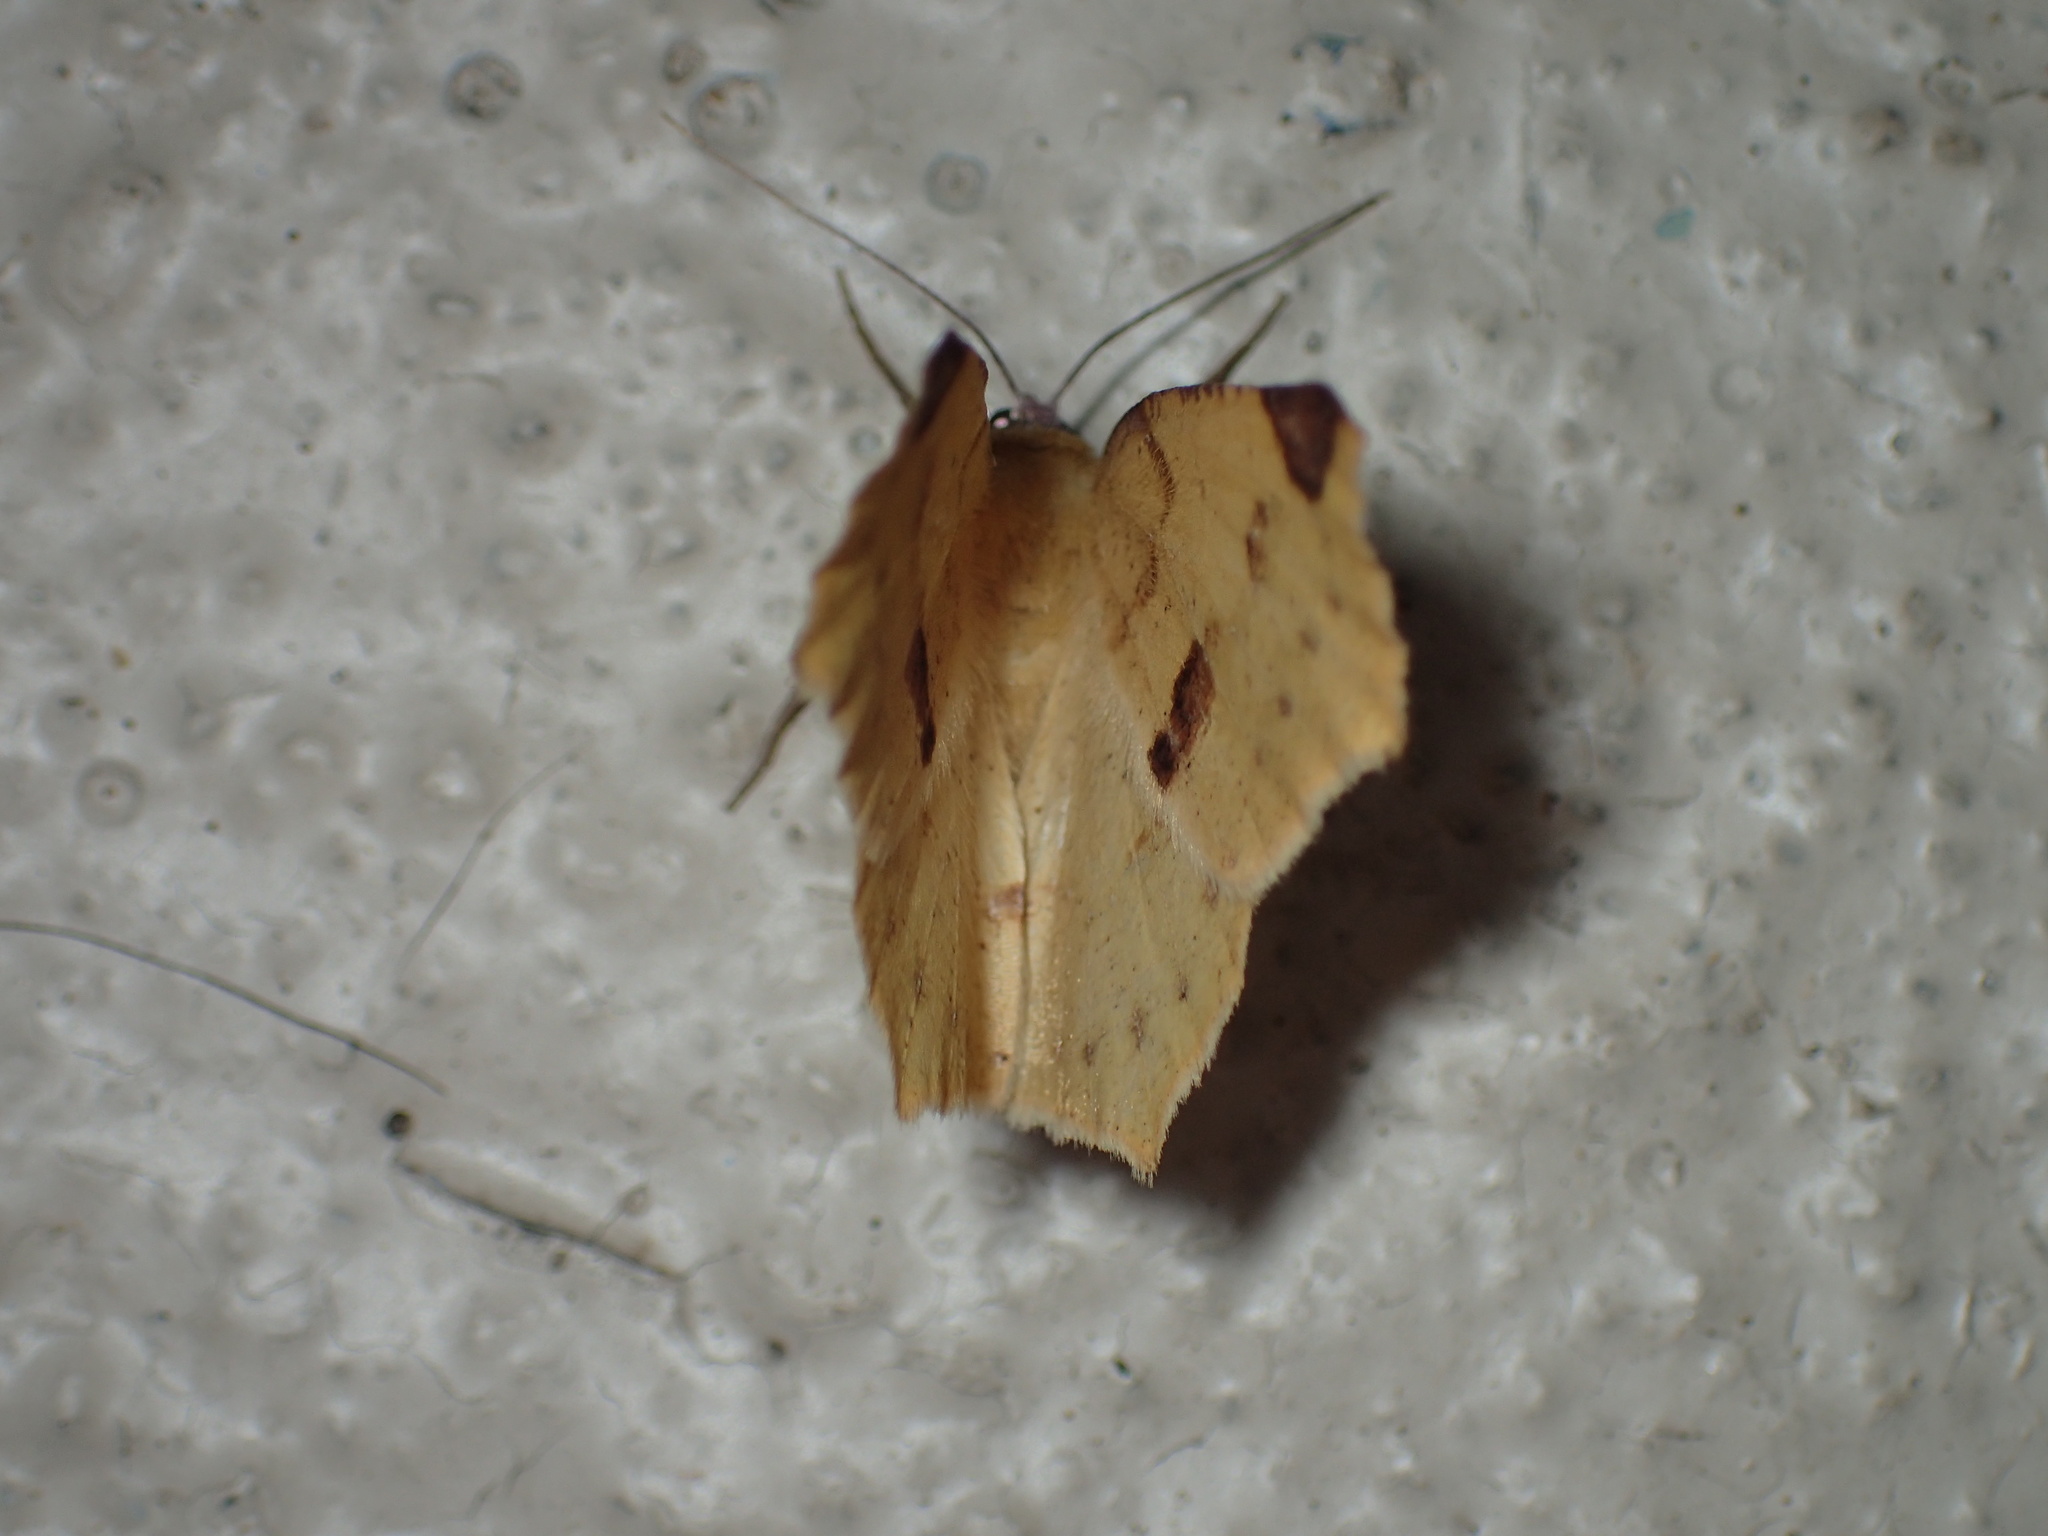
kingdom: Animalia
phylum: Arthropoda
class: Insecta
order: Lepidoptera
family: Geometridae
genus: Antepione
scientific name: Antepione thisoaria
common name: Variable antipione
